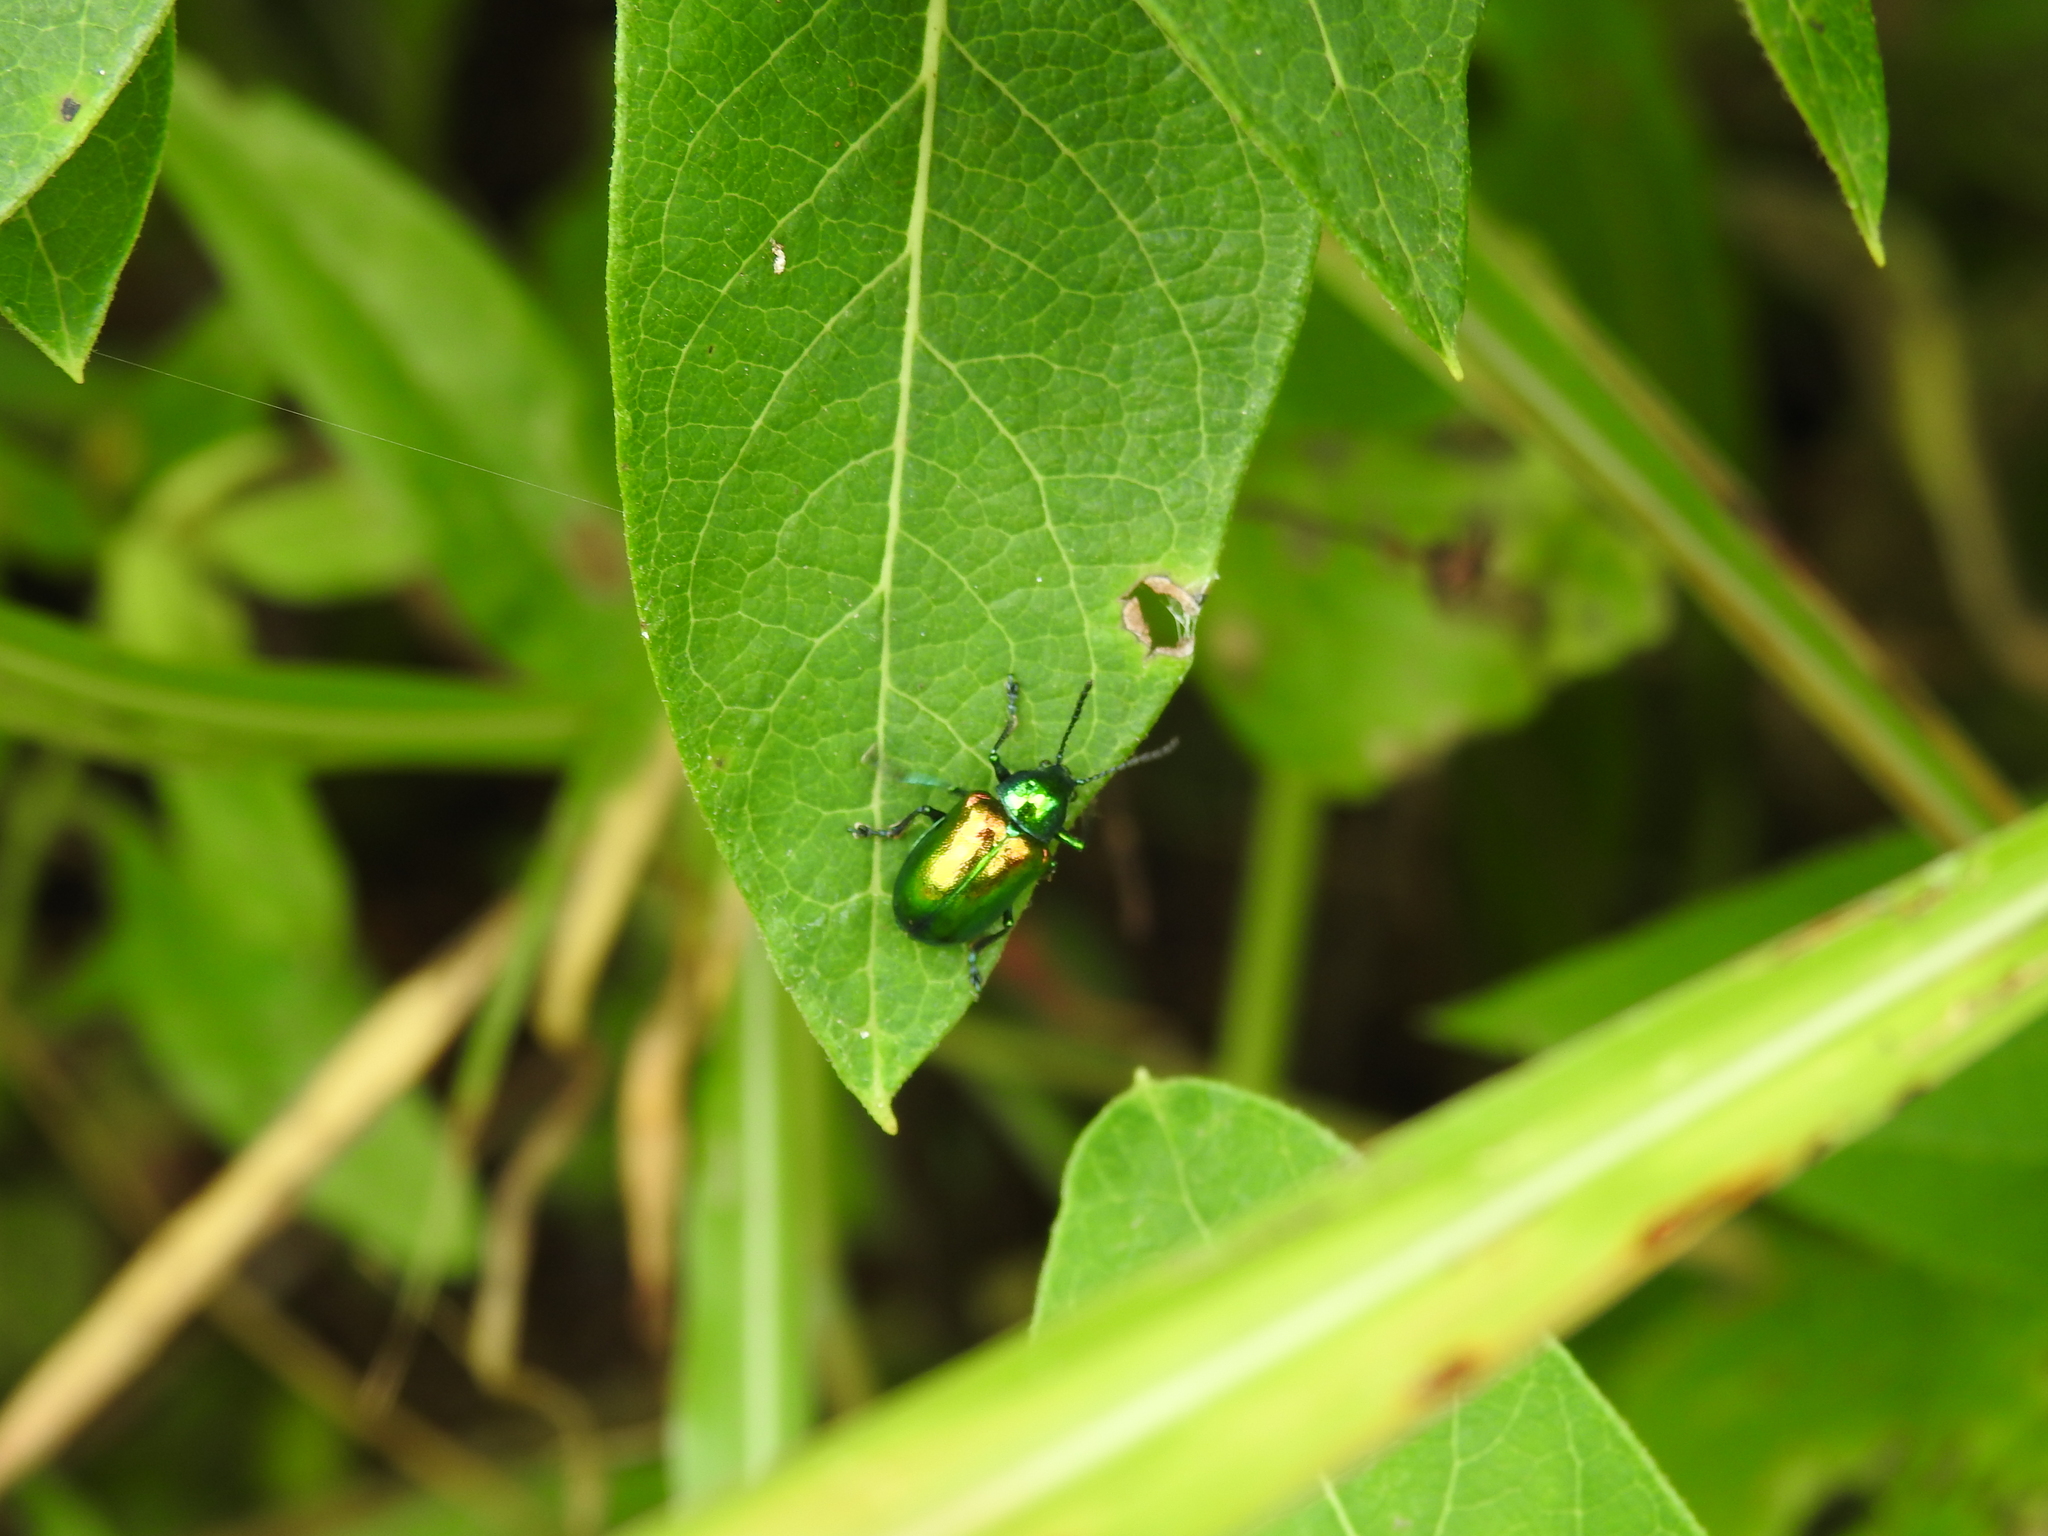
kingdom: Animalia
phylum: Arthropoda
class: Insecta
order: Coleoptera
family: Chrysomelidae
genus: Chrysochus
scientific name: Chrysochus auratus
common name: Dogbane leaf beetle
